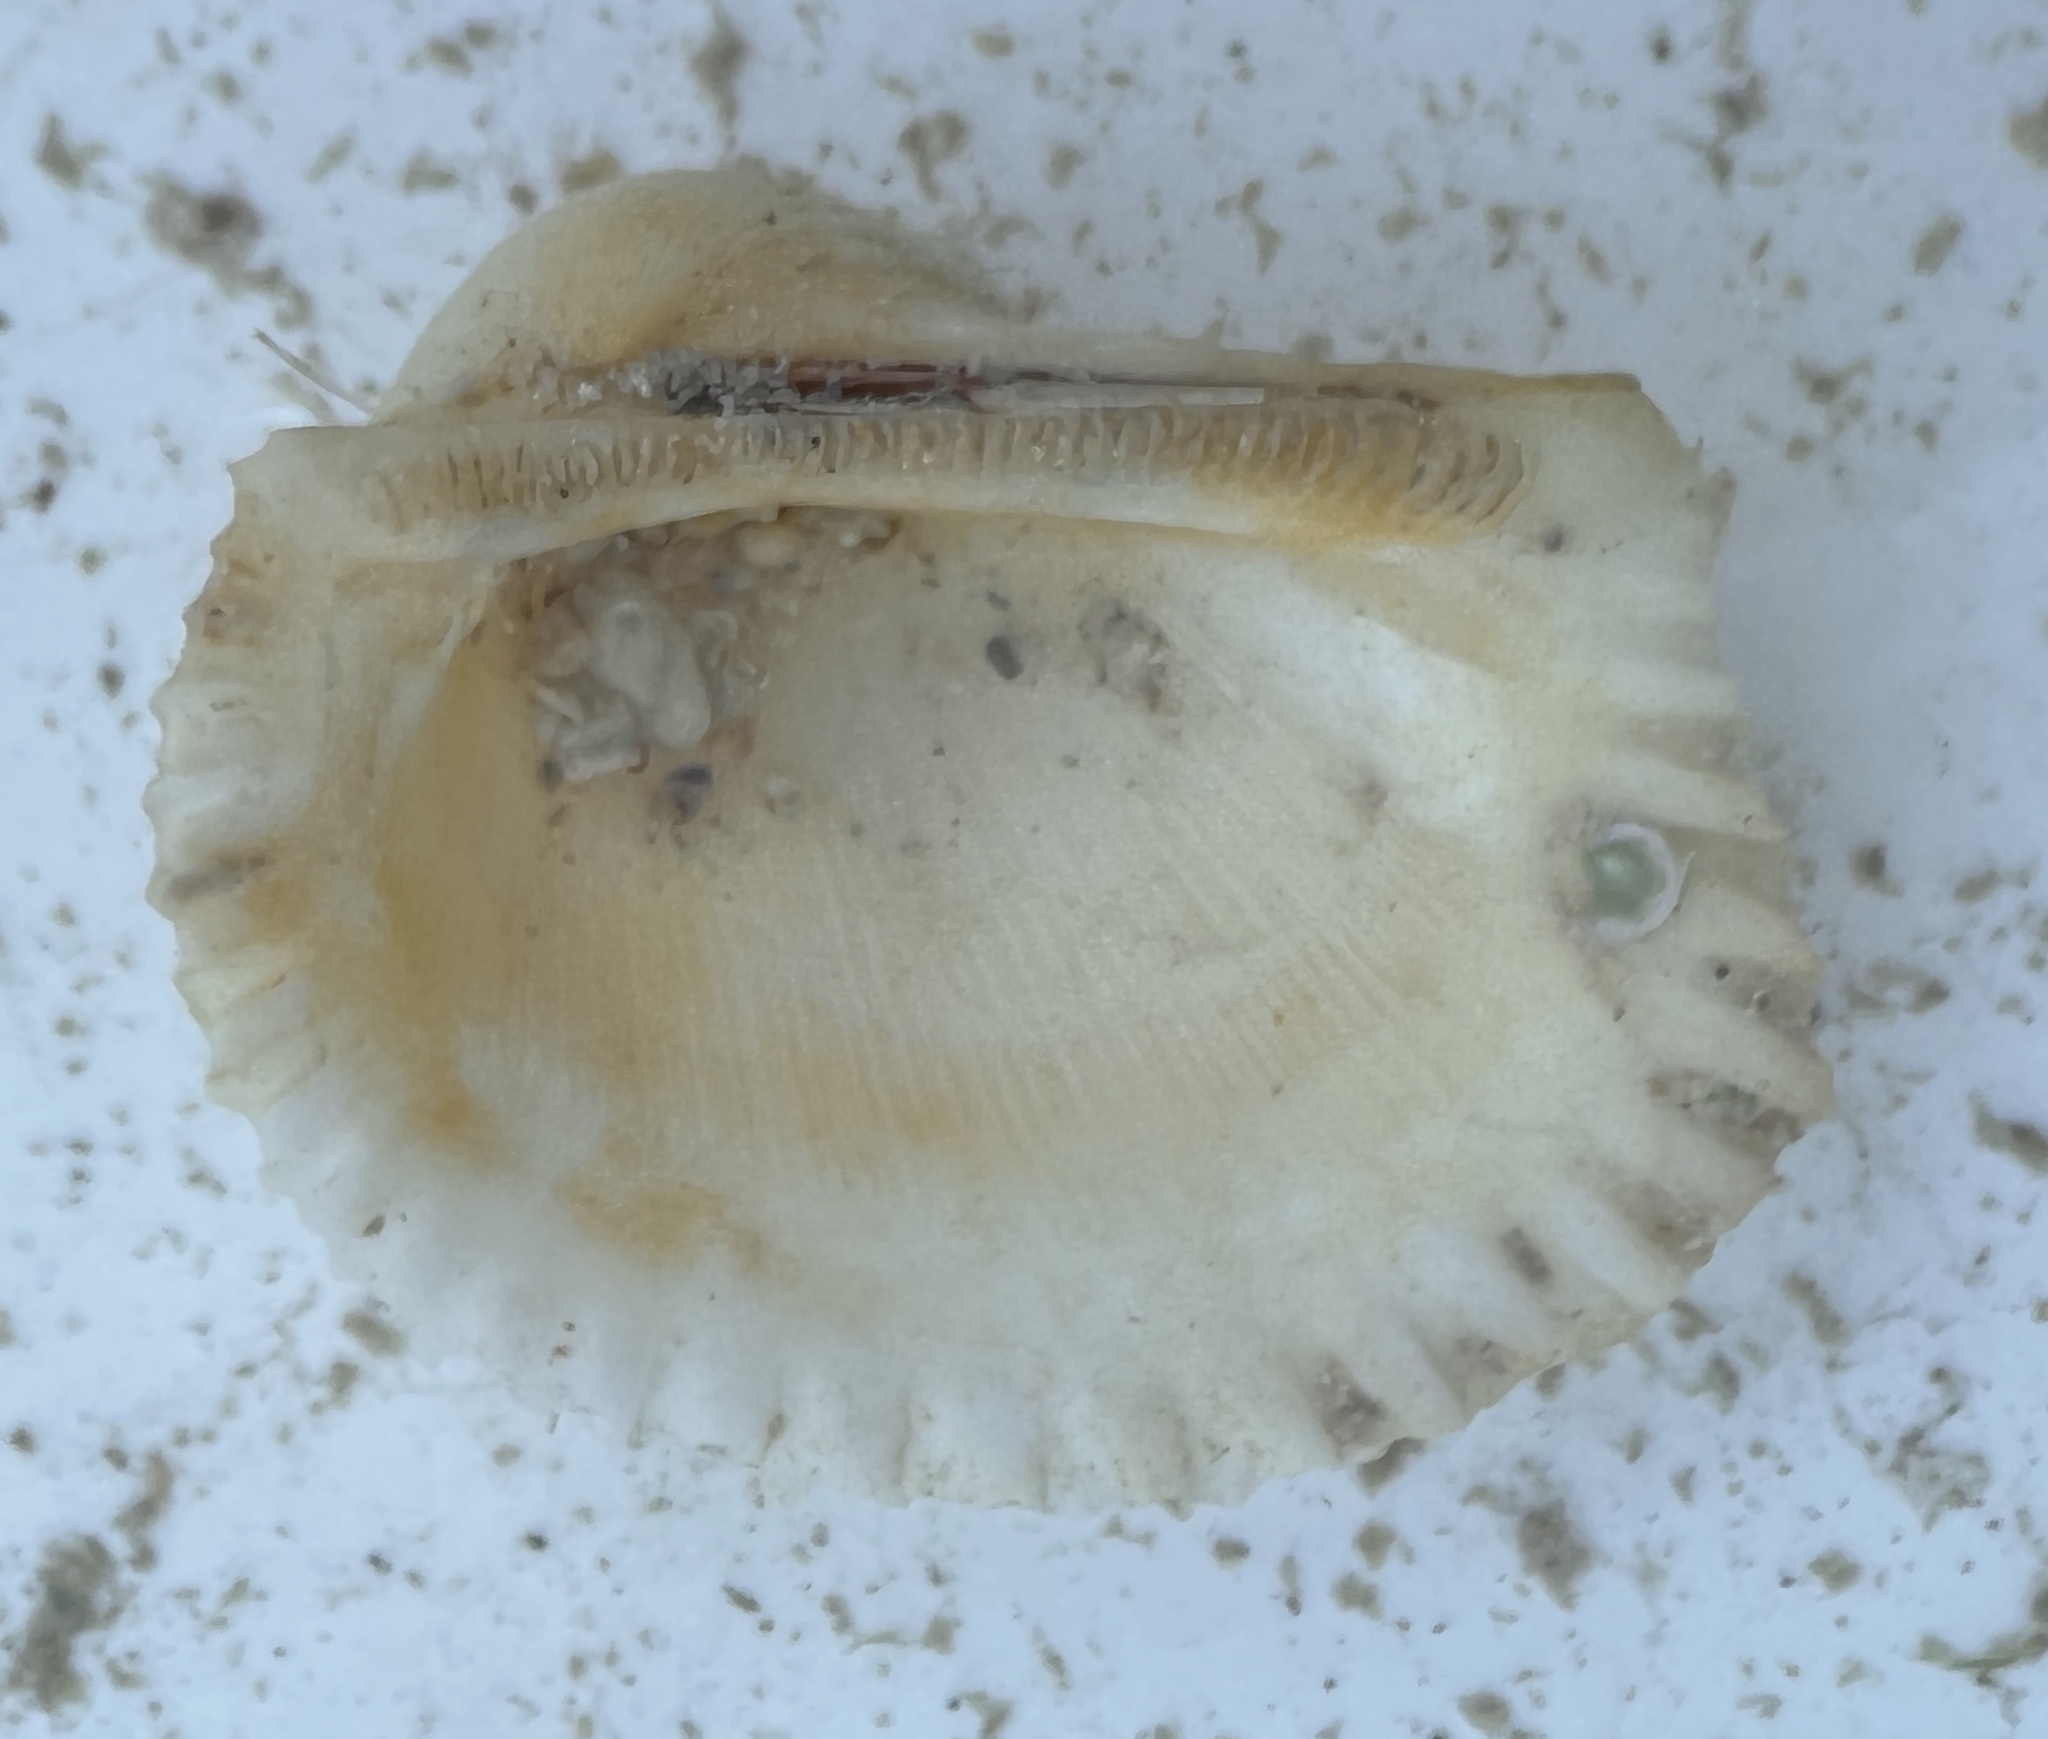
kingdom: Animalia
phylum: Mollusca
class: Bivalvia
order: Arcida
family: Arcidae
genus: Anadara
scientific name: Anadara notabilis
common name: Eared ark
